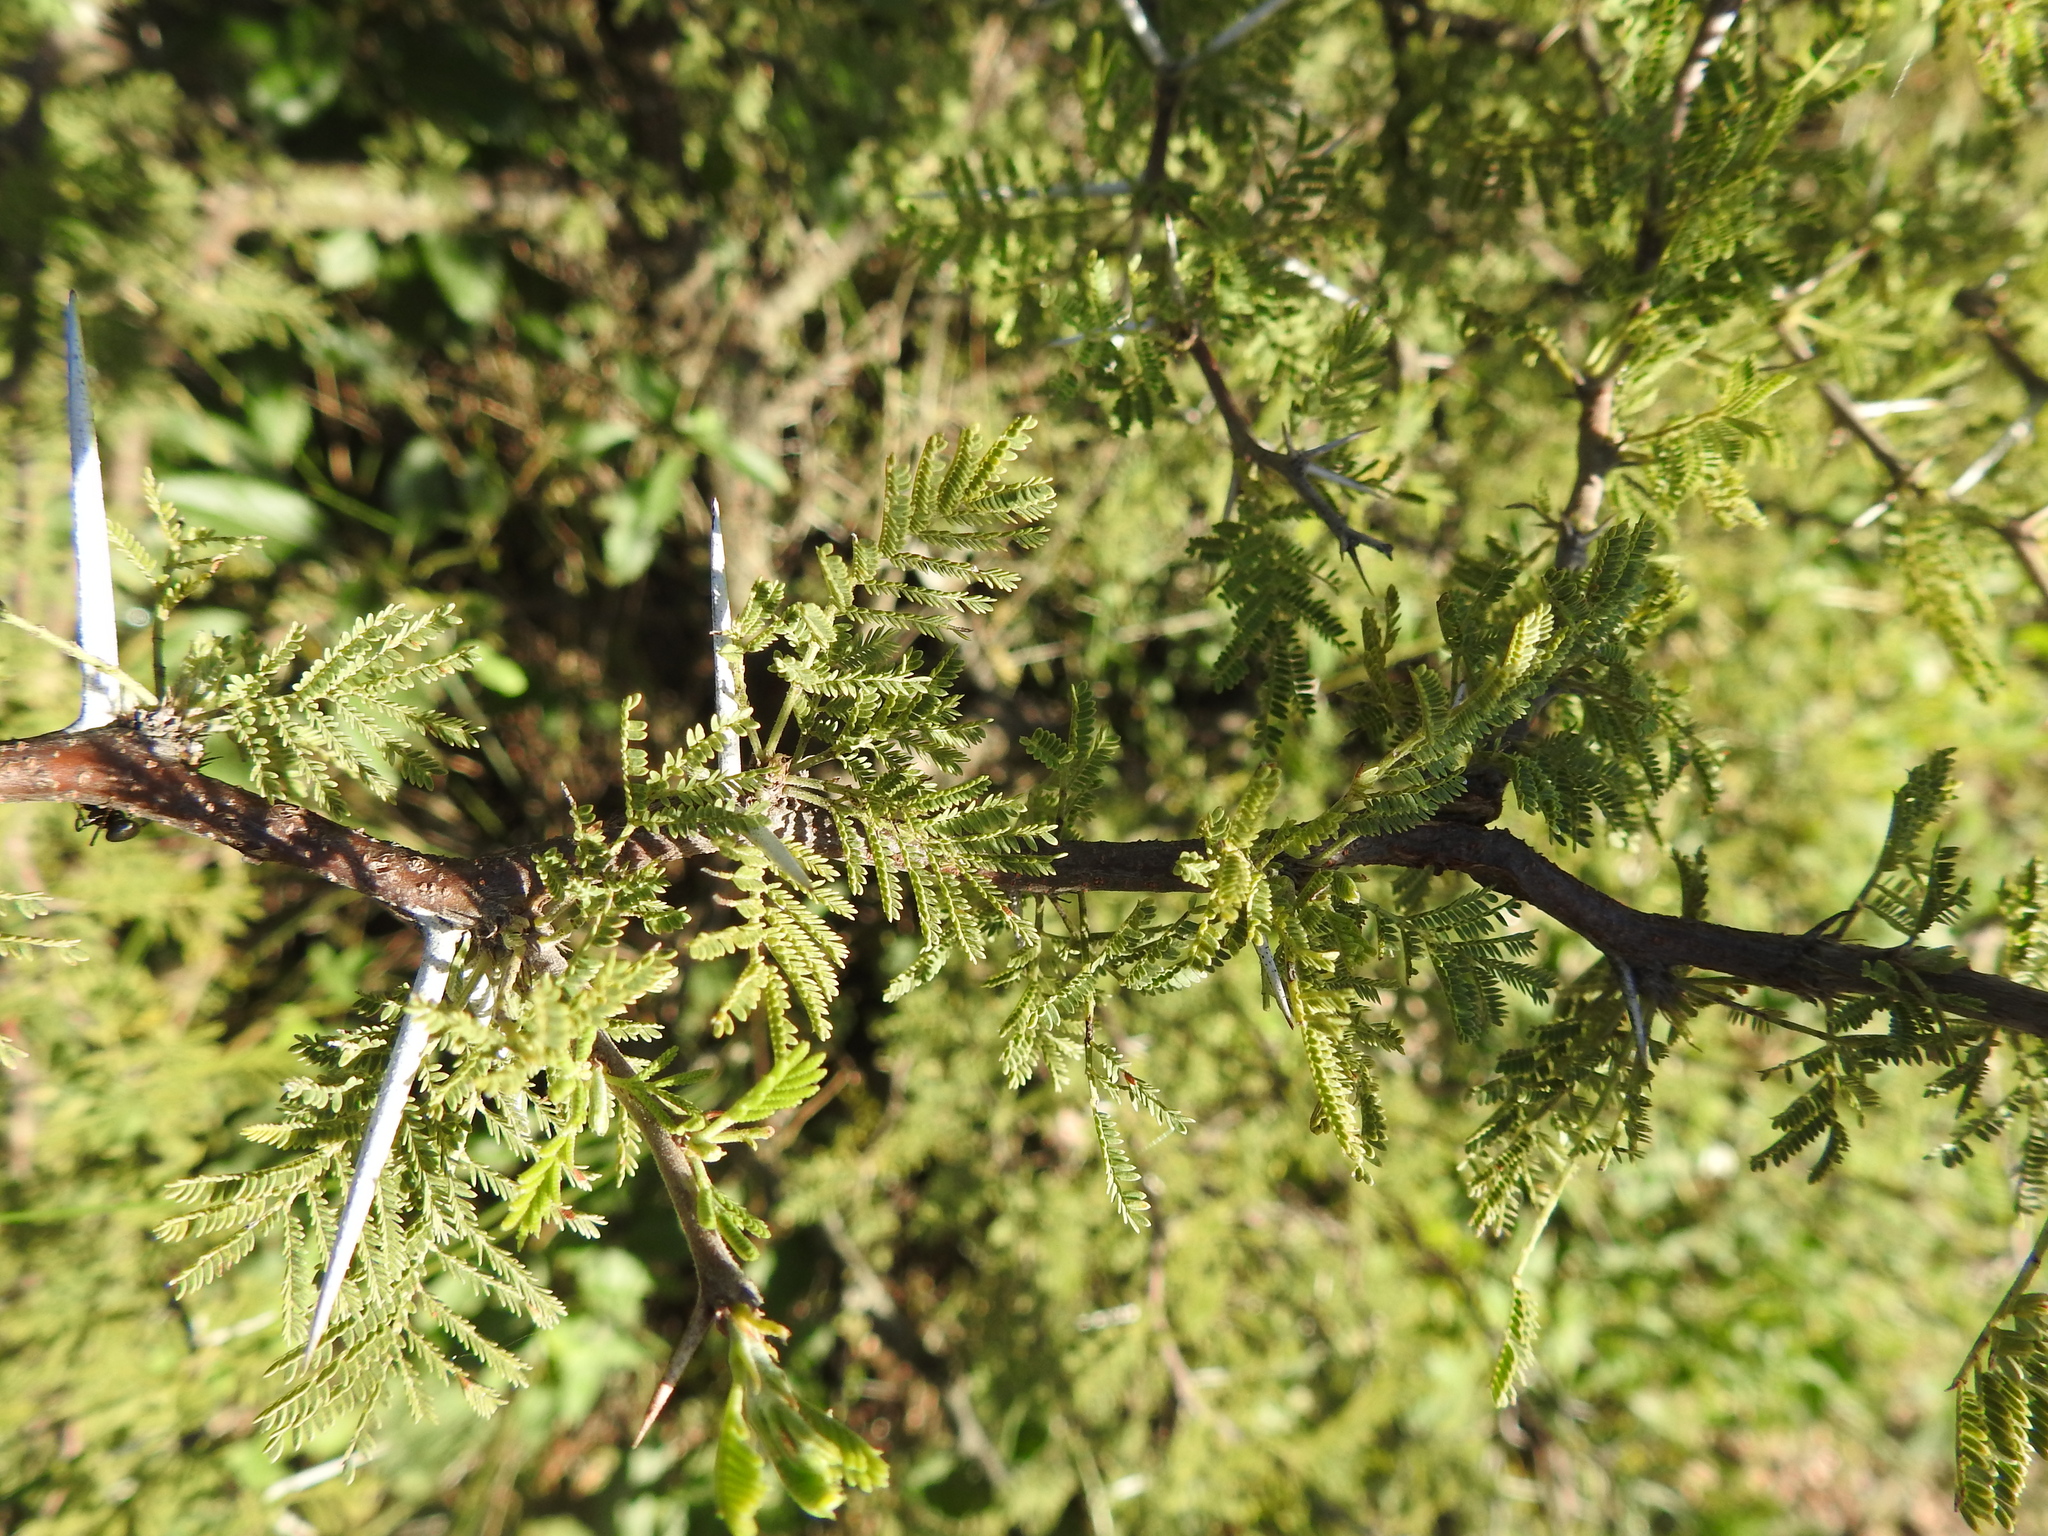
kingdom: Plantae
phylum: Tracheophyta
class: Magnoliopsida
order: Fabales
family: Fabaceae
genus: Vachellia
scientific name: Vachellia caven
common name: Roman cassie
